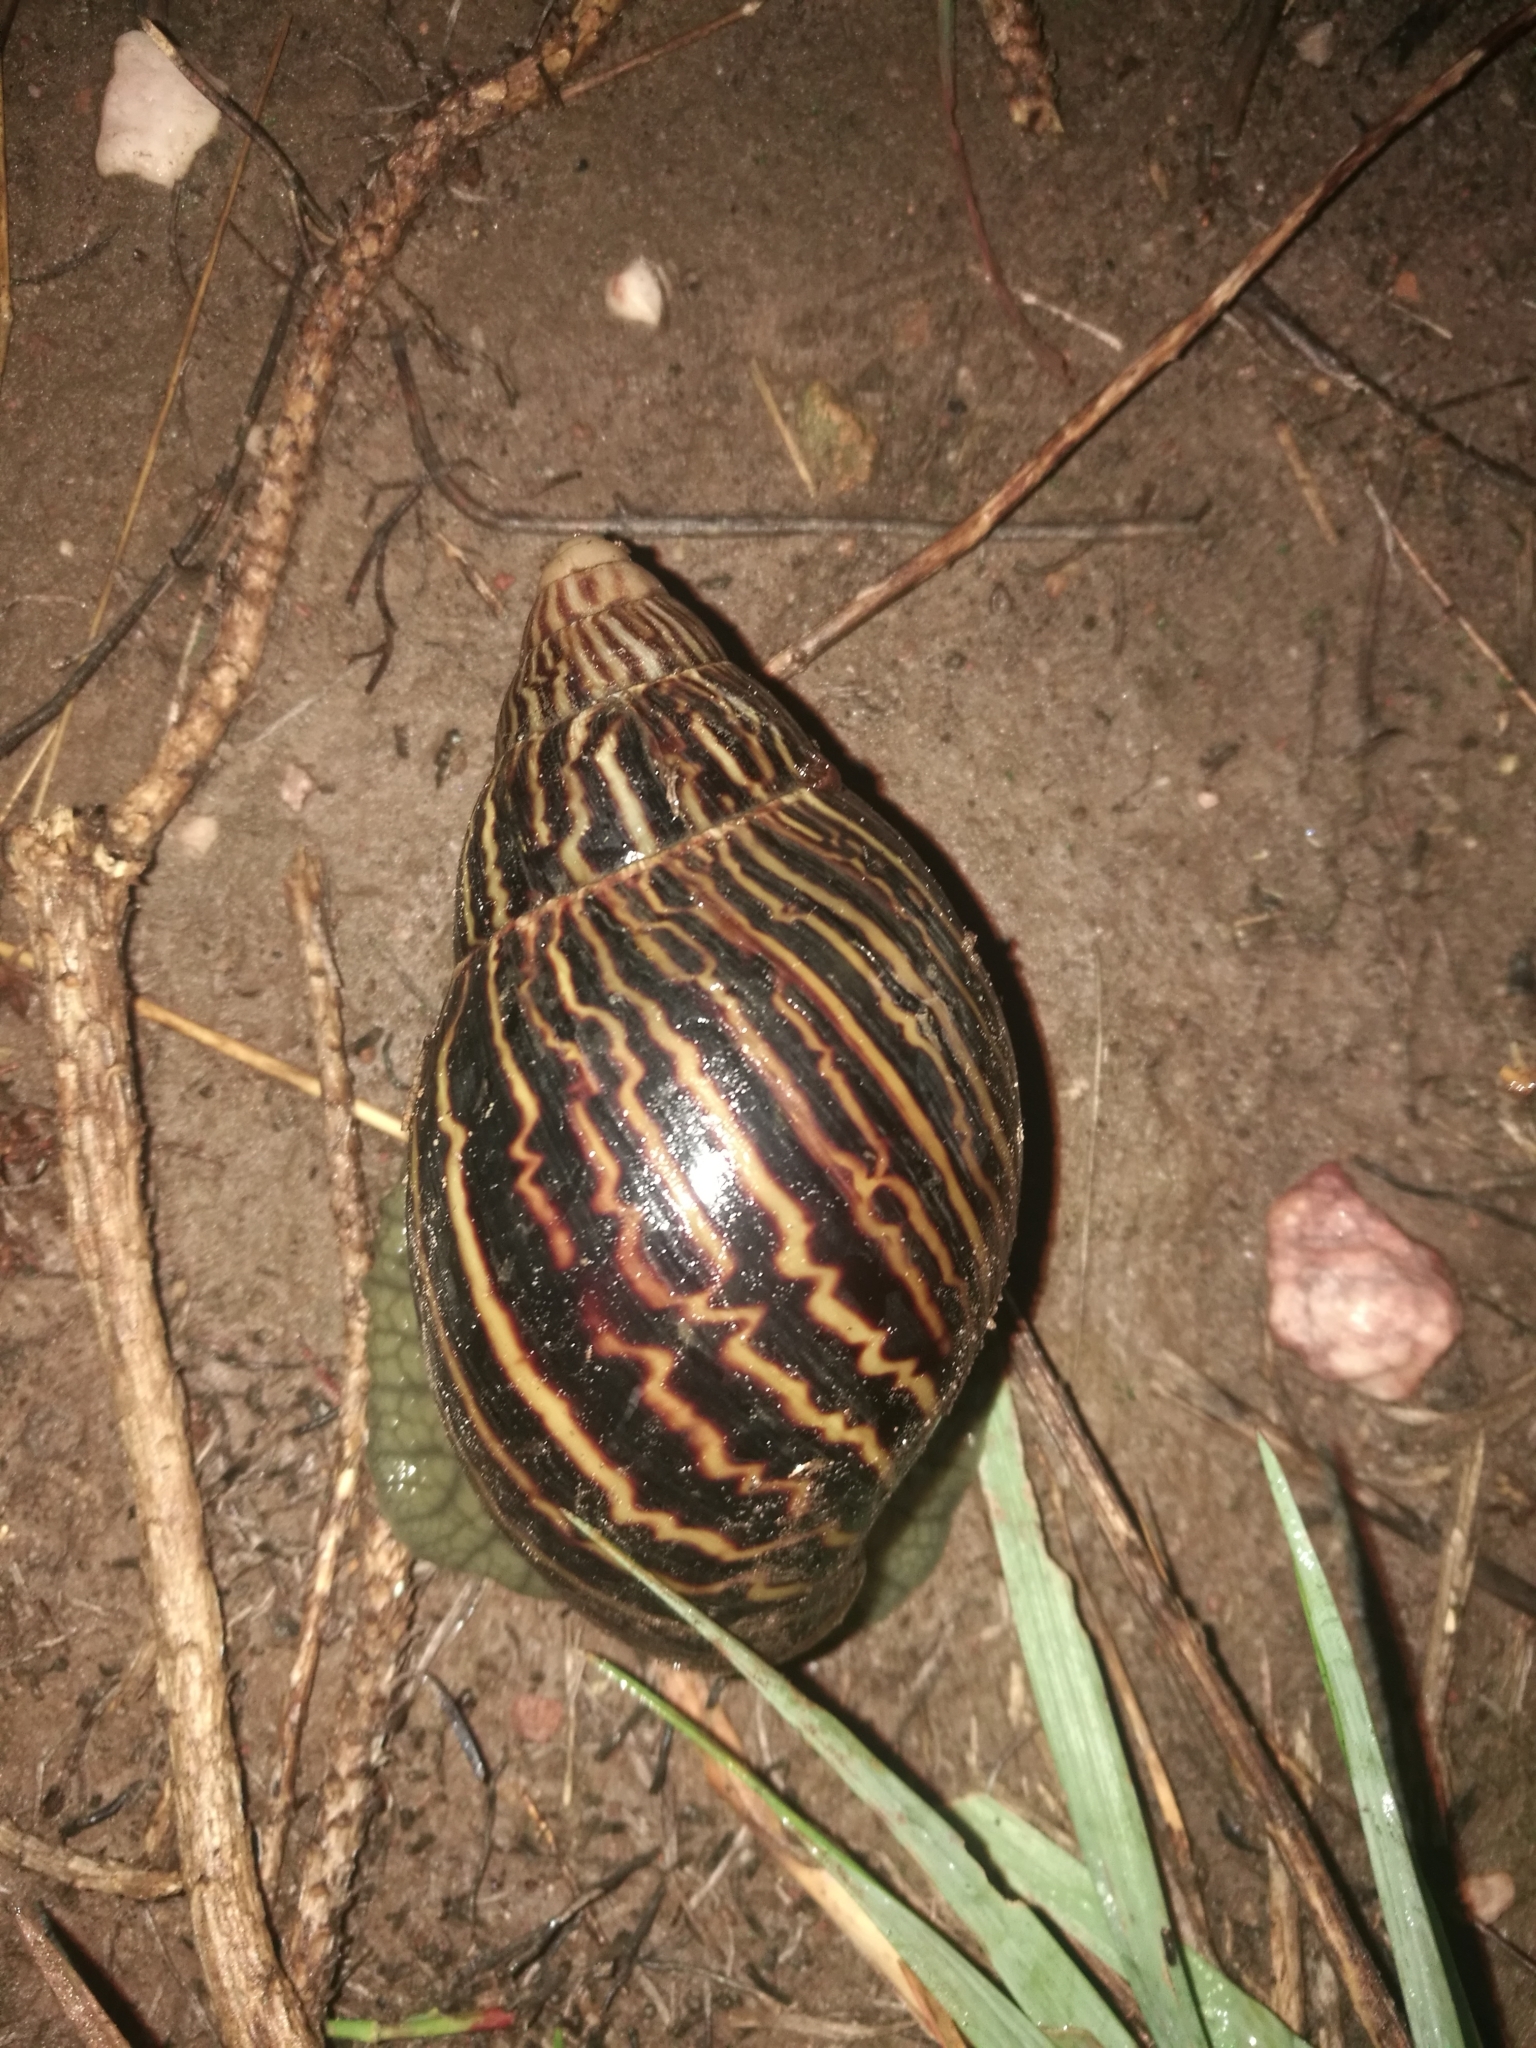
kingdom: Animalia
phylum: Mollusca
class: Gastropoda
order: Stylommatophora
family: Achatinidae
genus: Cochlitoma
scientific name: Cochlitoma zebra
